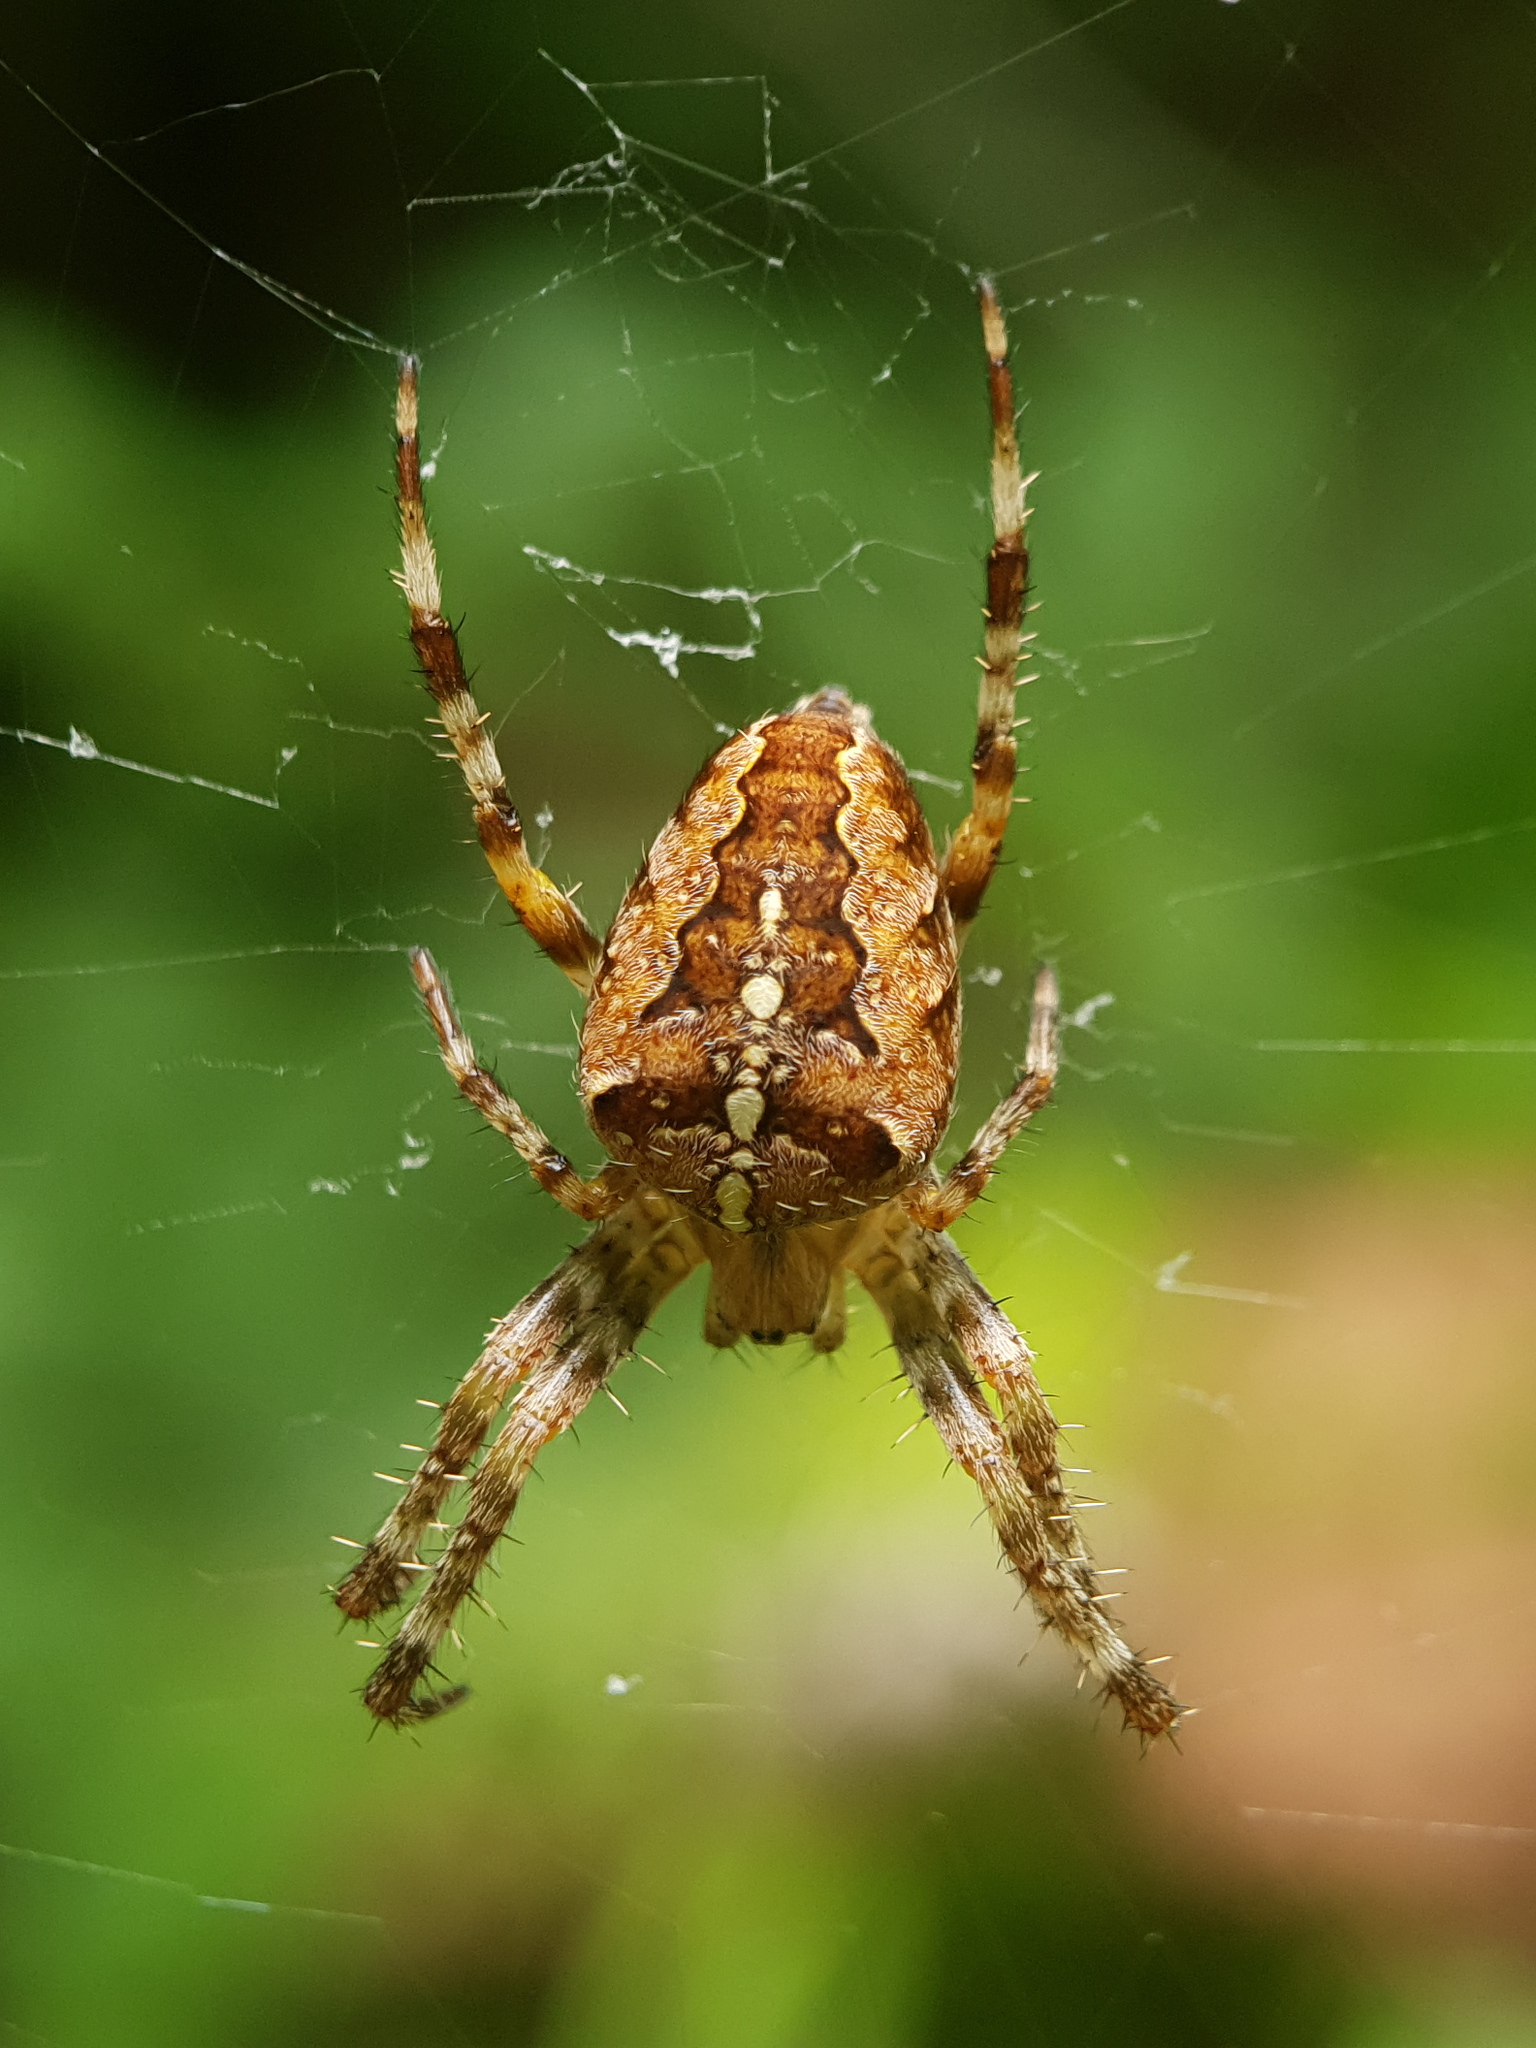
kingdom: Animalia
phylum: Arthropoda
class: Arachnida
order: Araneae
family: Araneidae
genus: Araneus
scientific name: Araneus diadematus
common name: Cross orbweaver
